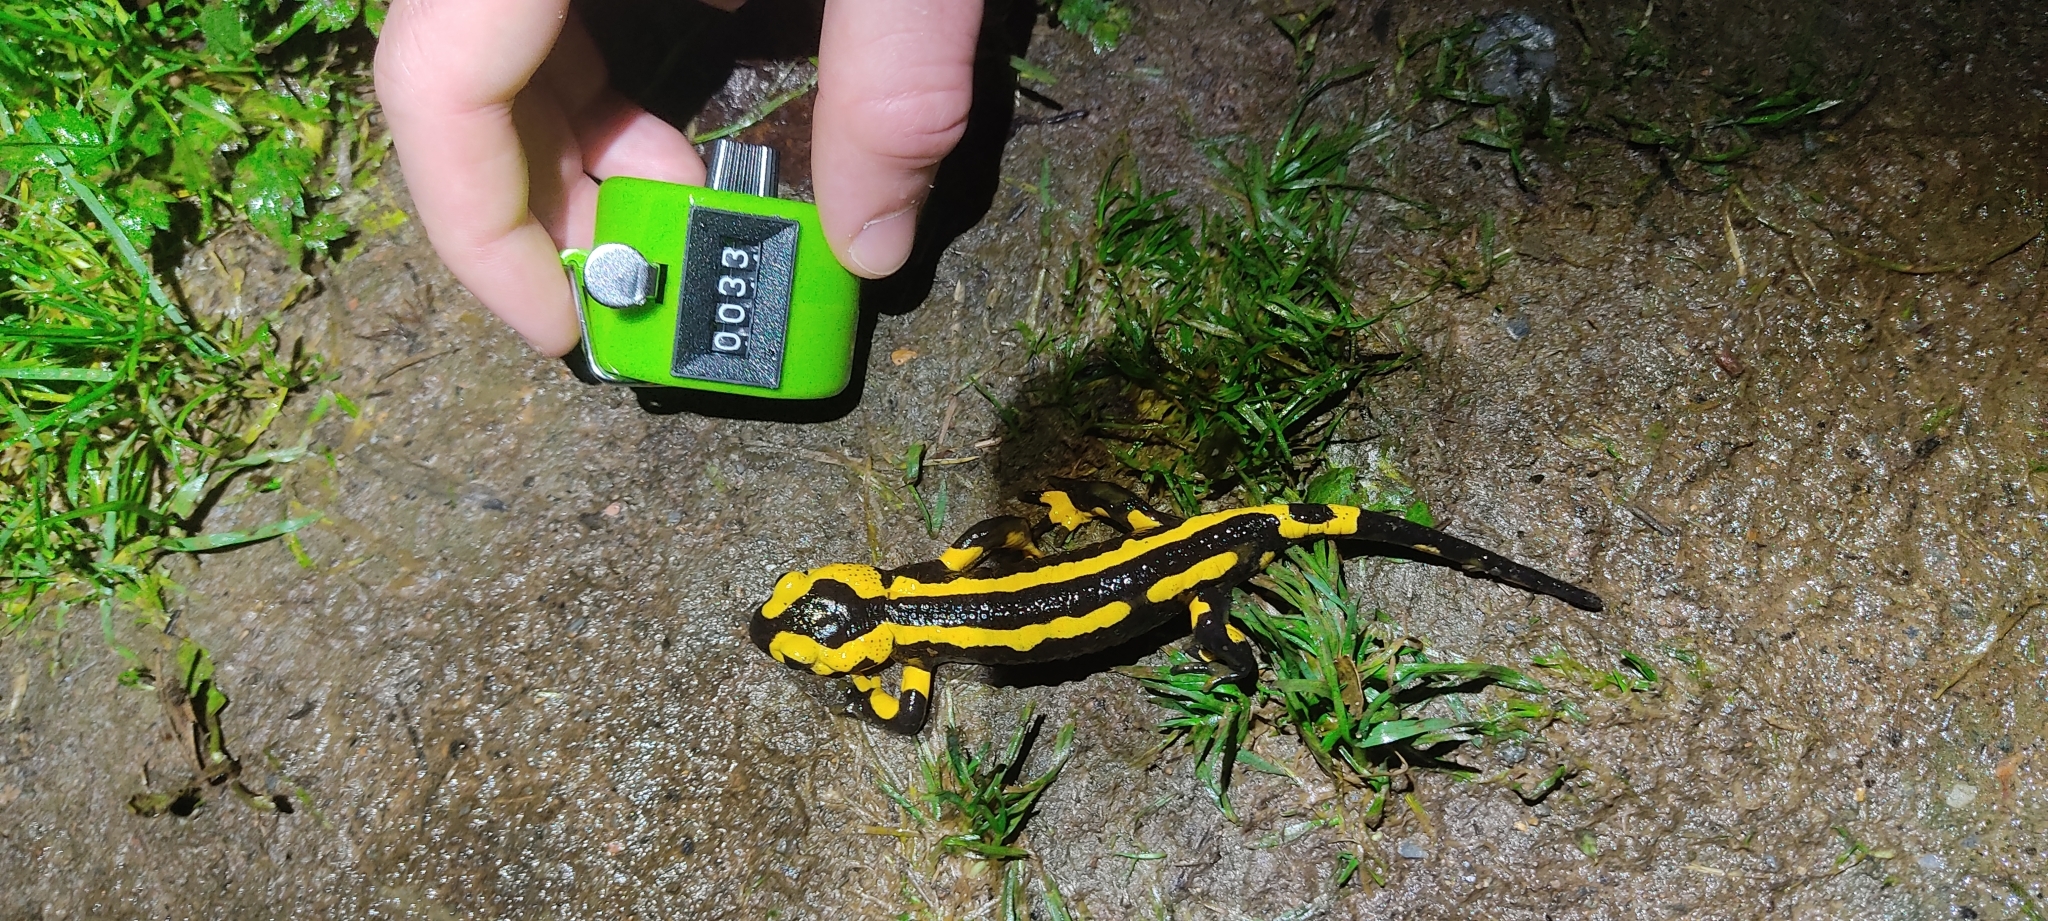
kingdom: Animalia
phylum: Chordata
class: Amphibia
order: Caudata
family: Salamandridae
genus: Salamandra
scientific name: Salamandra salamandra
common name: Fire salamander
